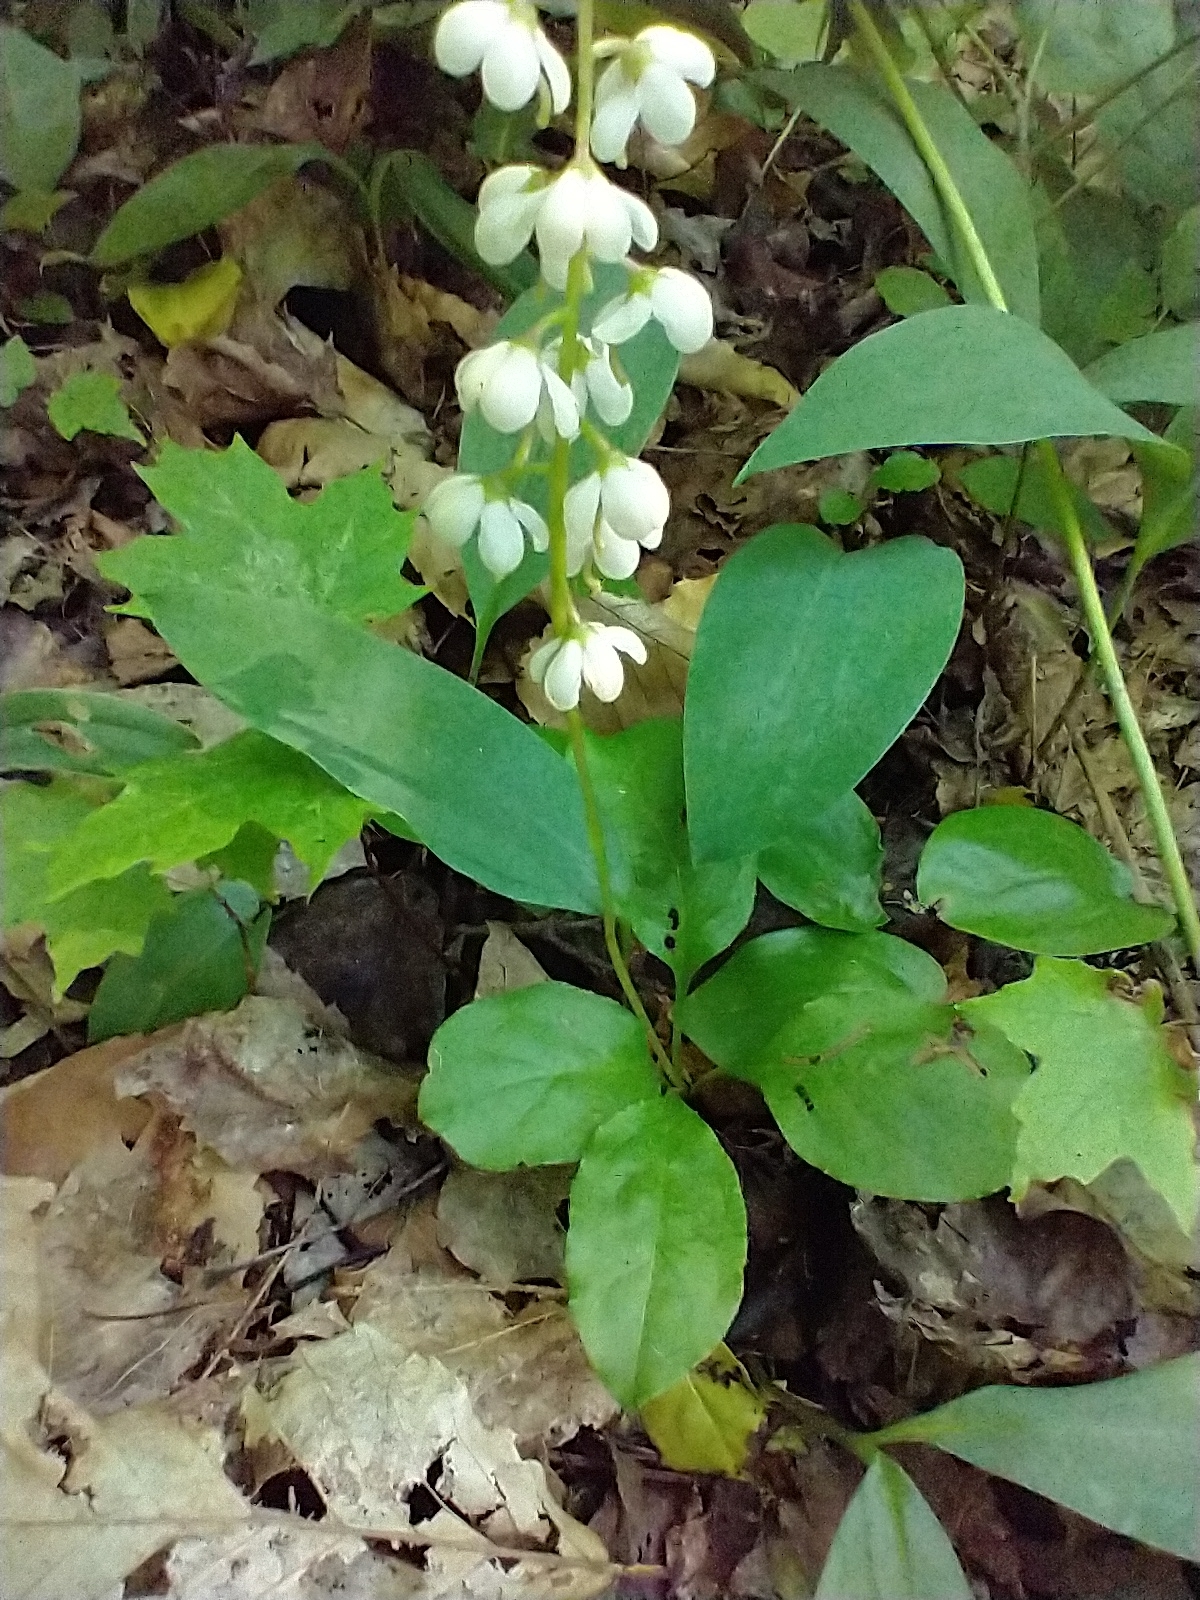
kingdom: Plantae
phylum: Tracheophyta
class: Magnoliopsida
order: Ericales
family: Ericaceae
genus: Pyrola
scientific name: Pyrola elliptica
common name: Shinleaf
